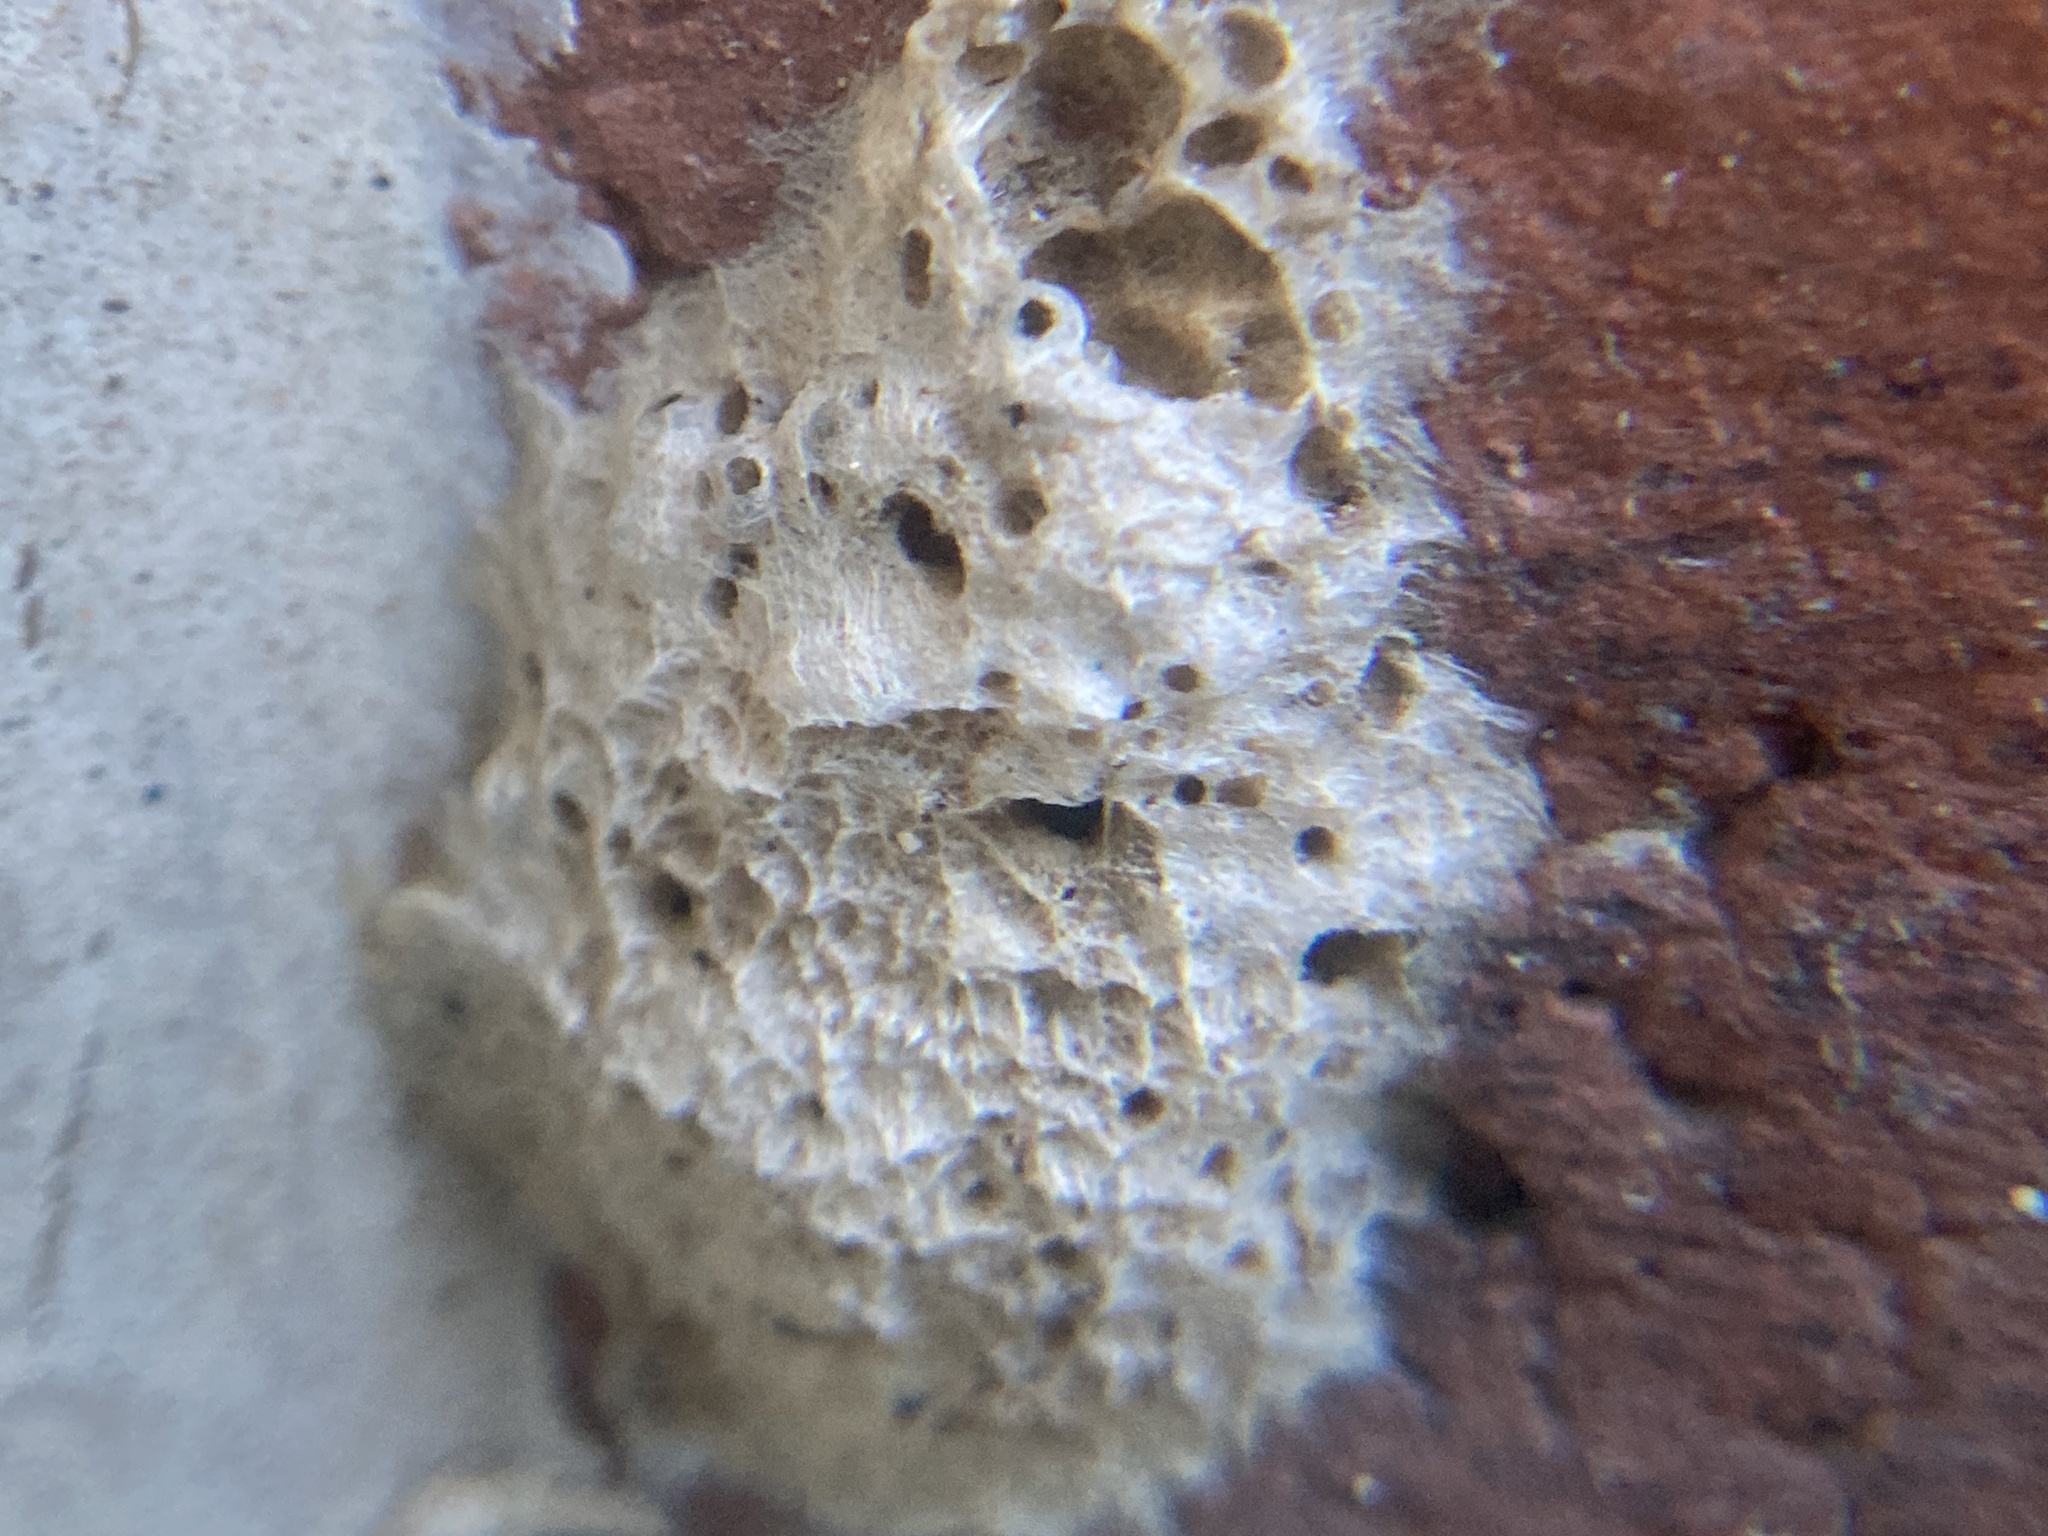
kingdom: Animalia
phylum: Arthropoda
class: Insecta
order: Lepidoptera
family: Erebidae
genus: Lymantria
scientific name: Lymantria dispar
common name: Gypsy moth
